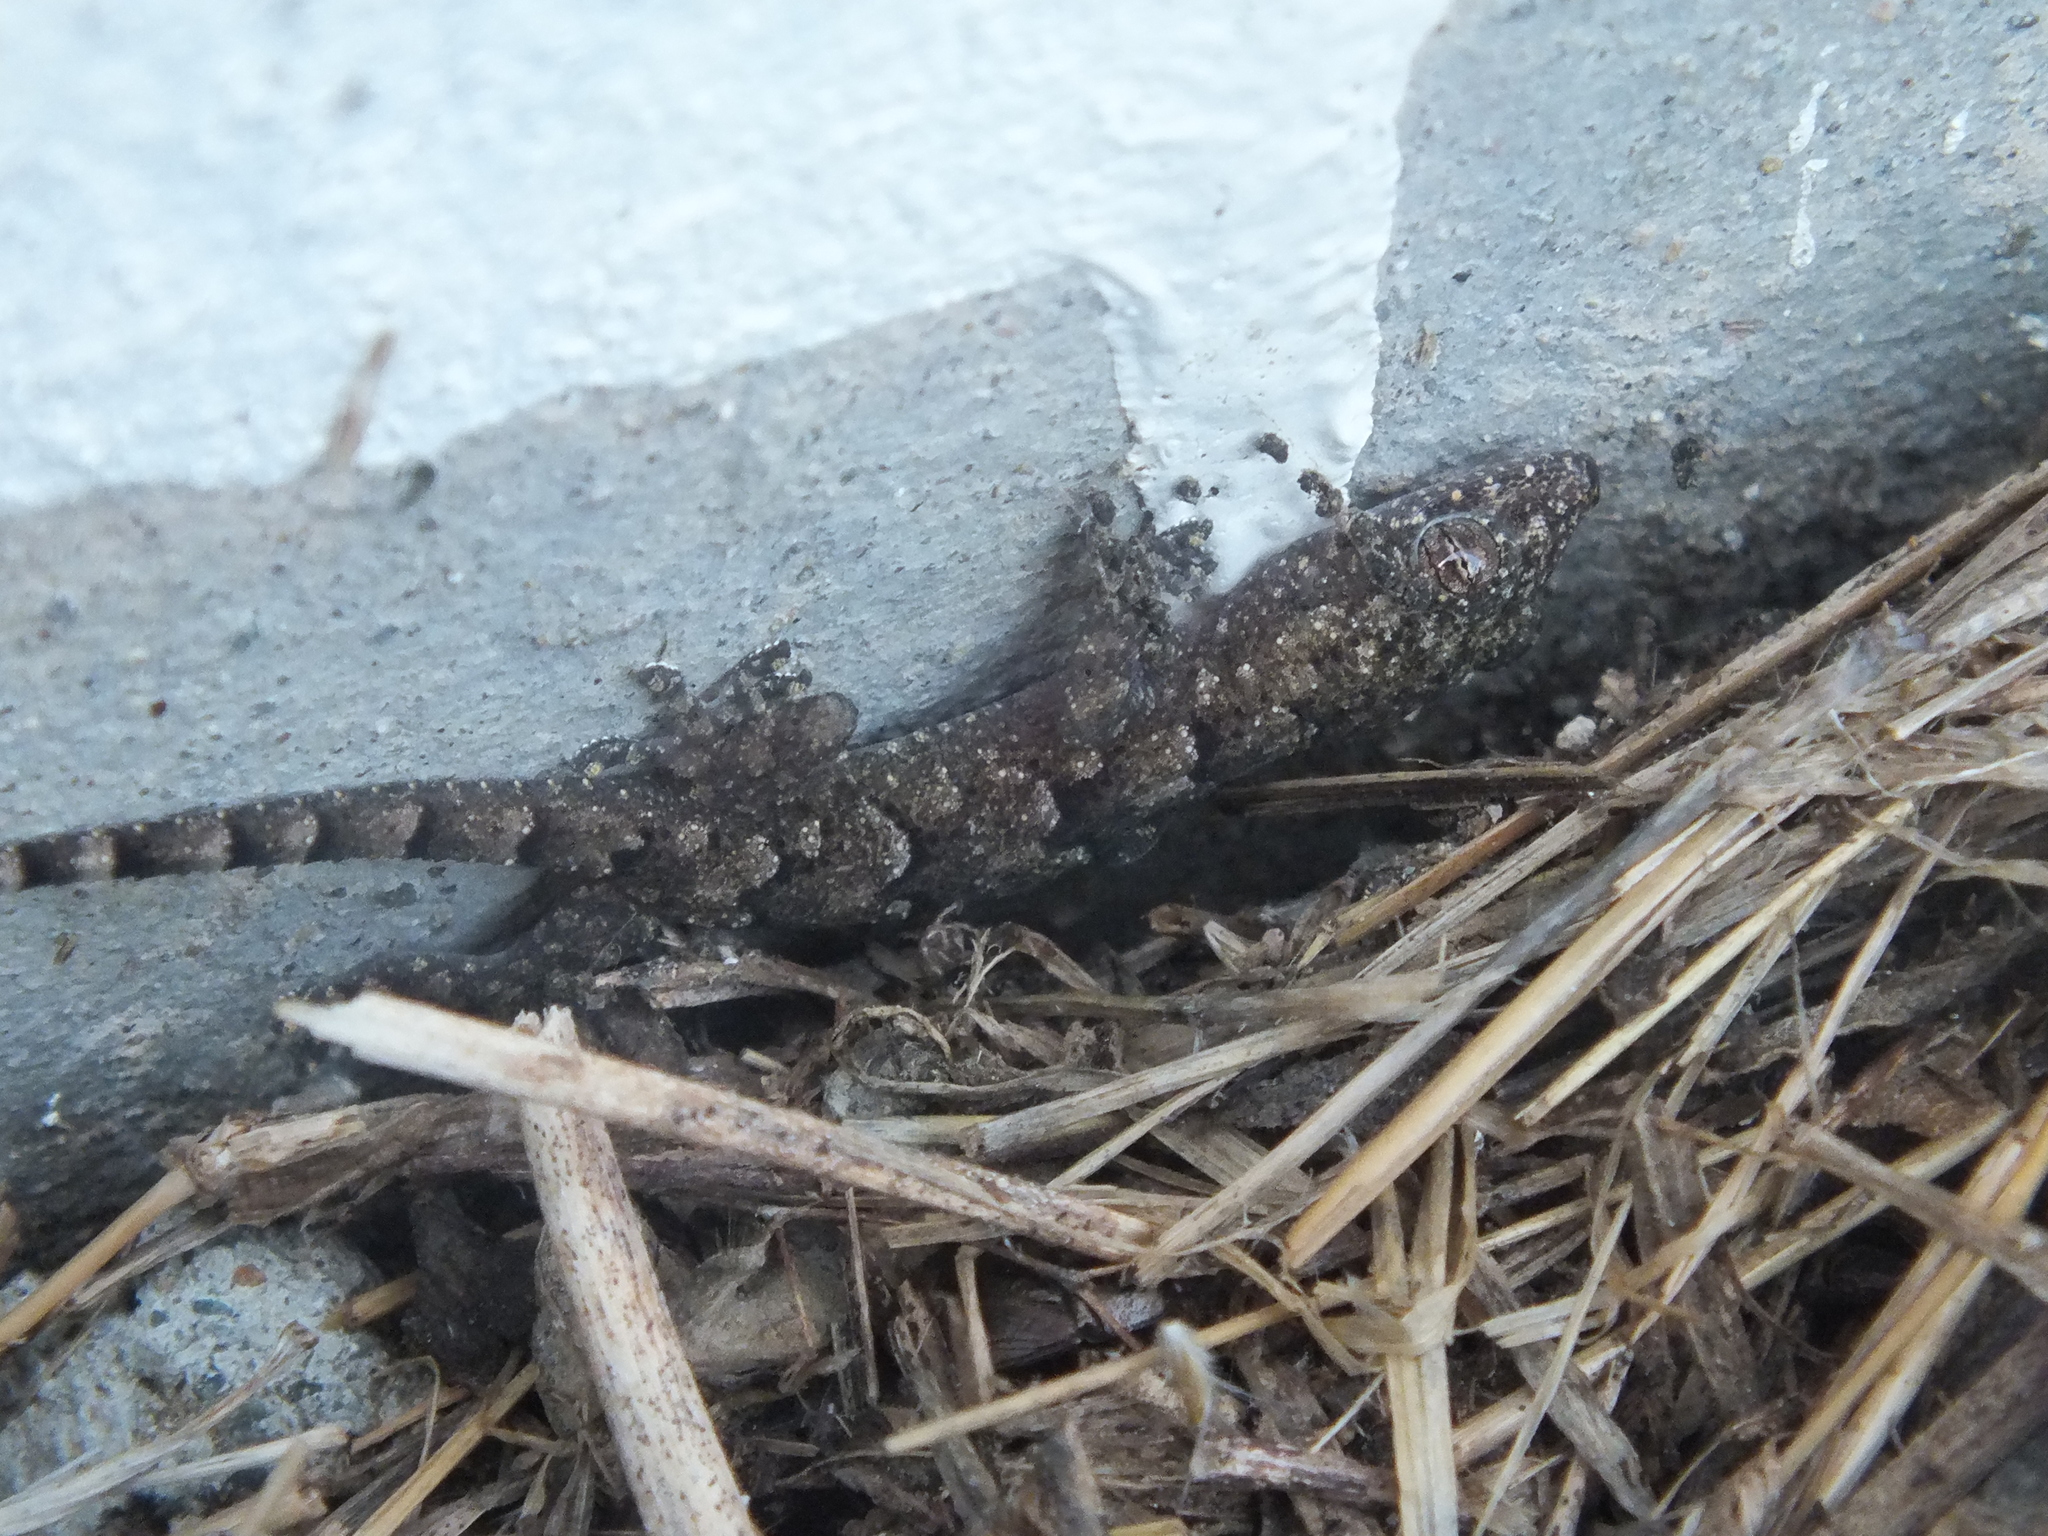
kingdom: Animalia
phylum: Chordata
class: Squamata
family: Gekkonidae
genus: Hemidactylus
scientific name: Hemidactylus mabouia
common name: House gecko
